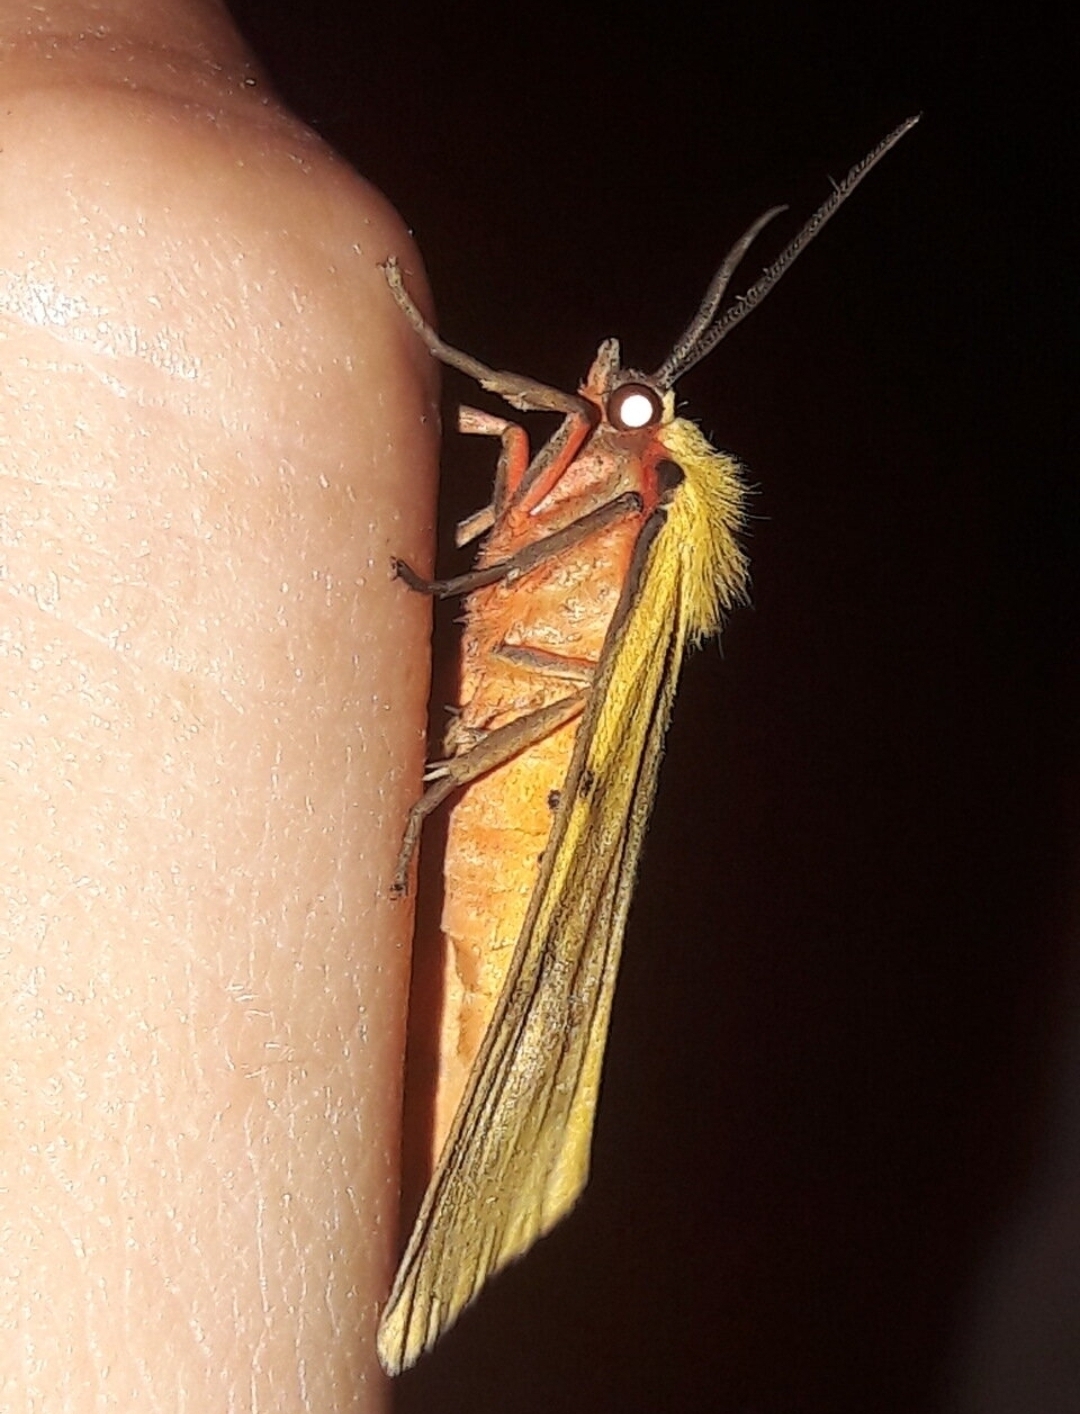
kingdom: Animalia
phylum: Arthropoda
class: Insecta
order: Lepidoptera
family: Erebidae
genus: Rhyparioides
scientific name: Rhyparioides metelkana
